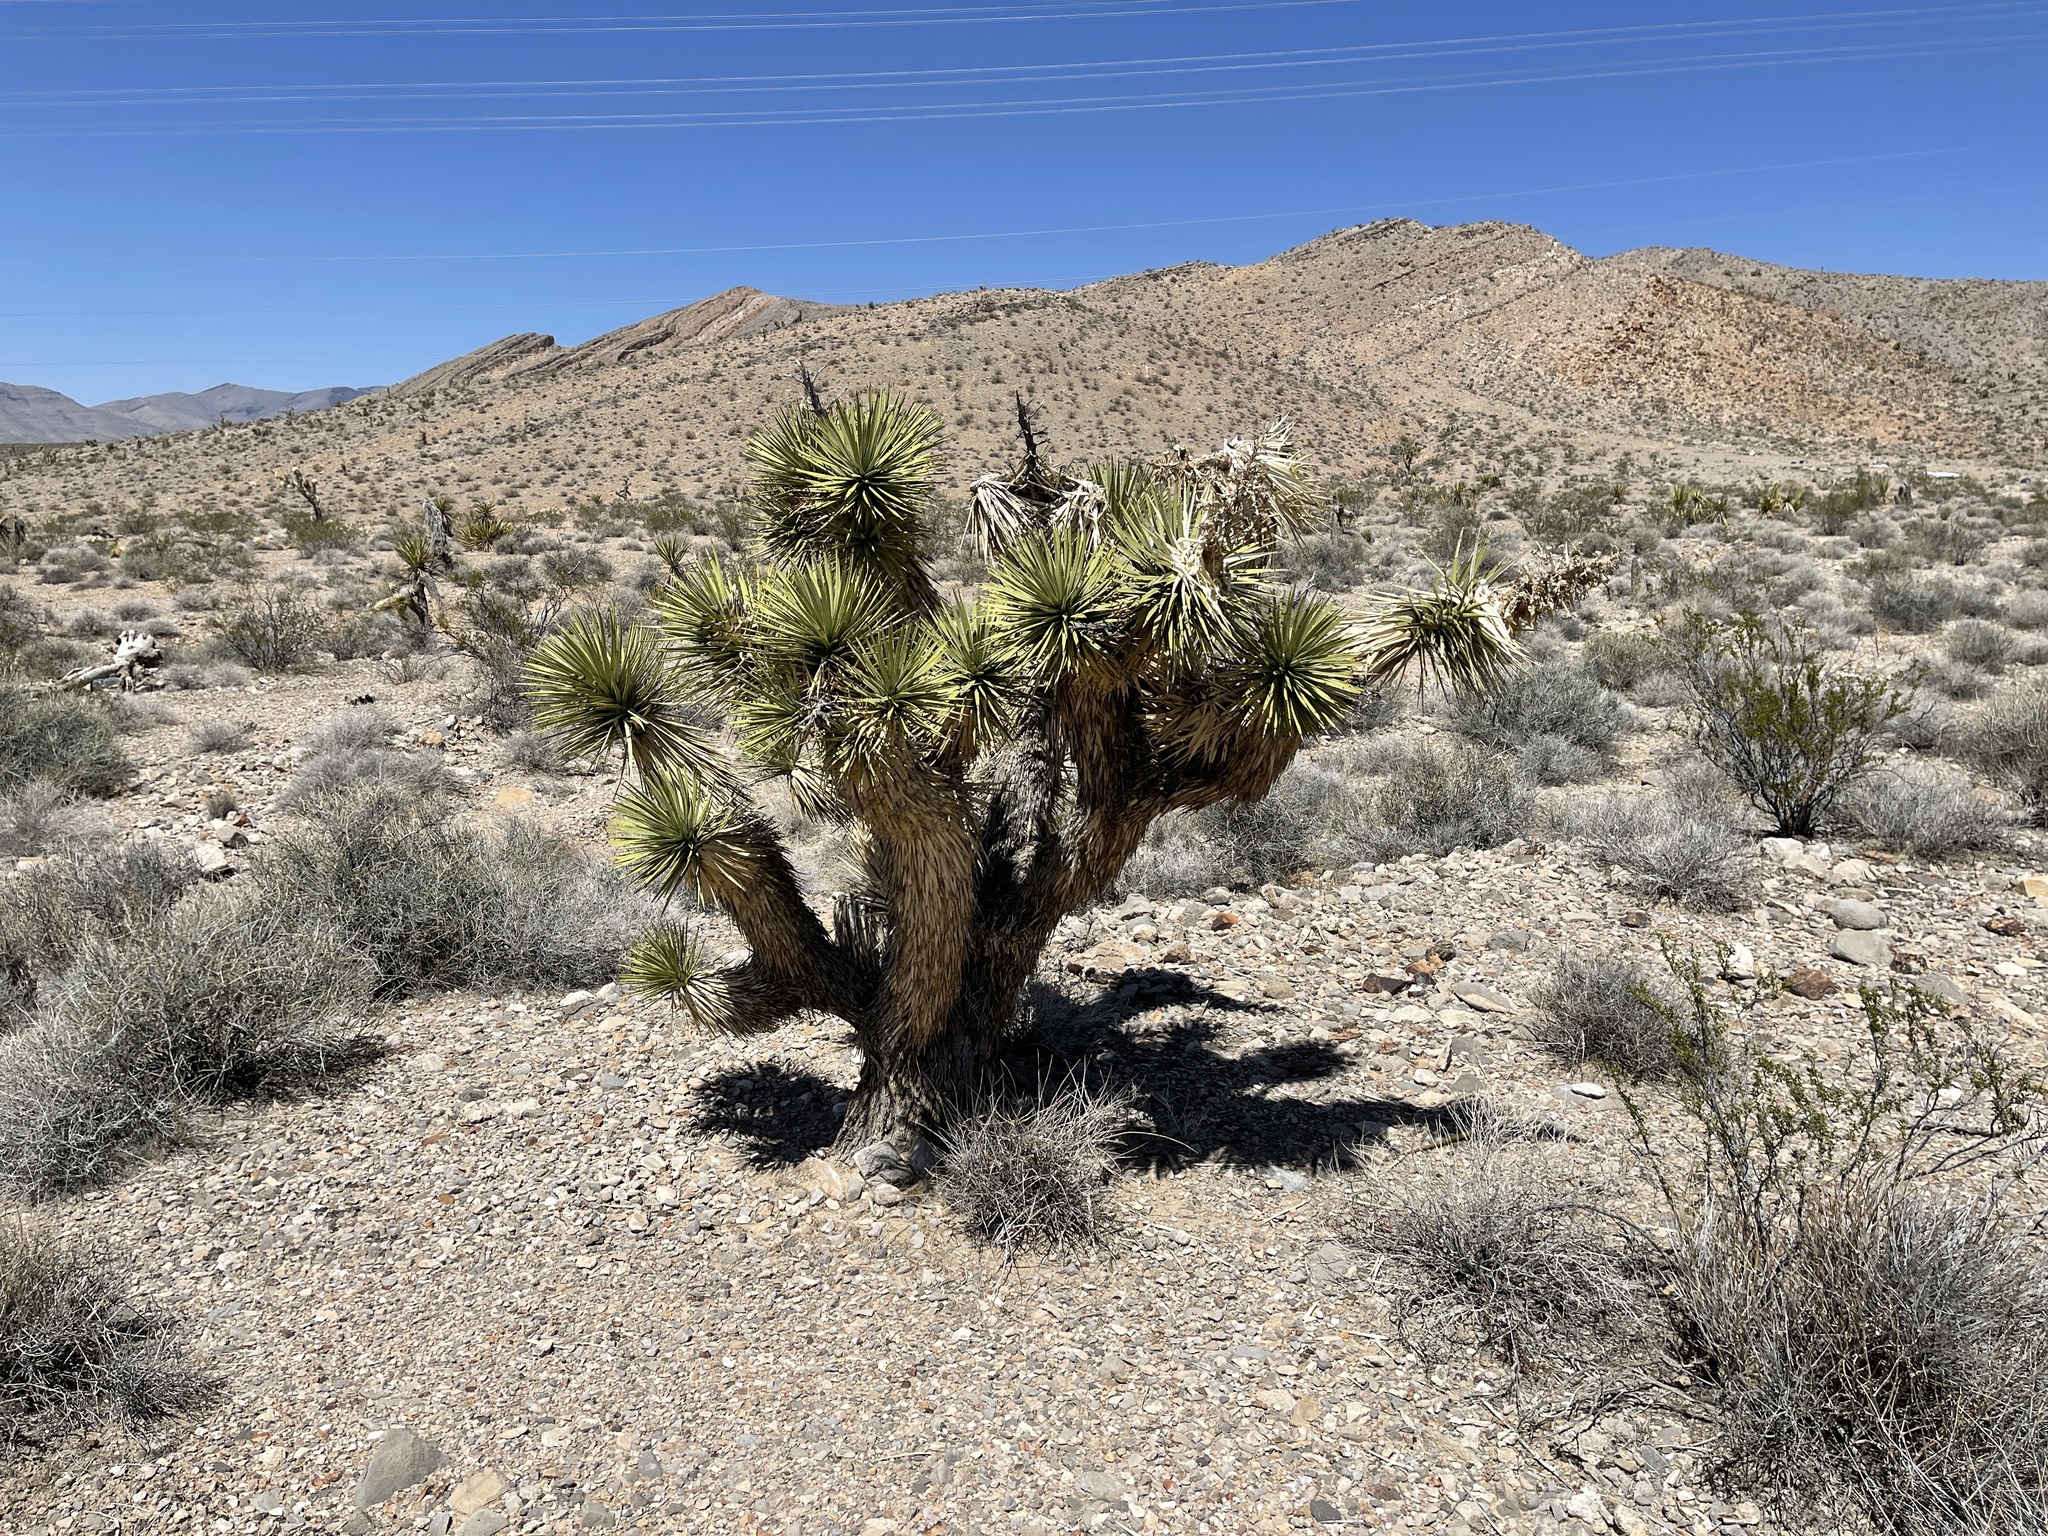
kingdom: Plantae
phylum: Tracheophyta
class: Liliopsida
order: Asparagales
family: Asparagaceae
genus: Yucca
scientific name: Yucca brevifolia
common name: Joshua tree
